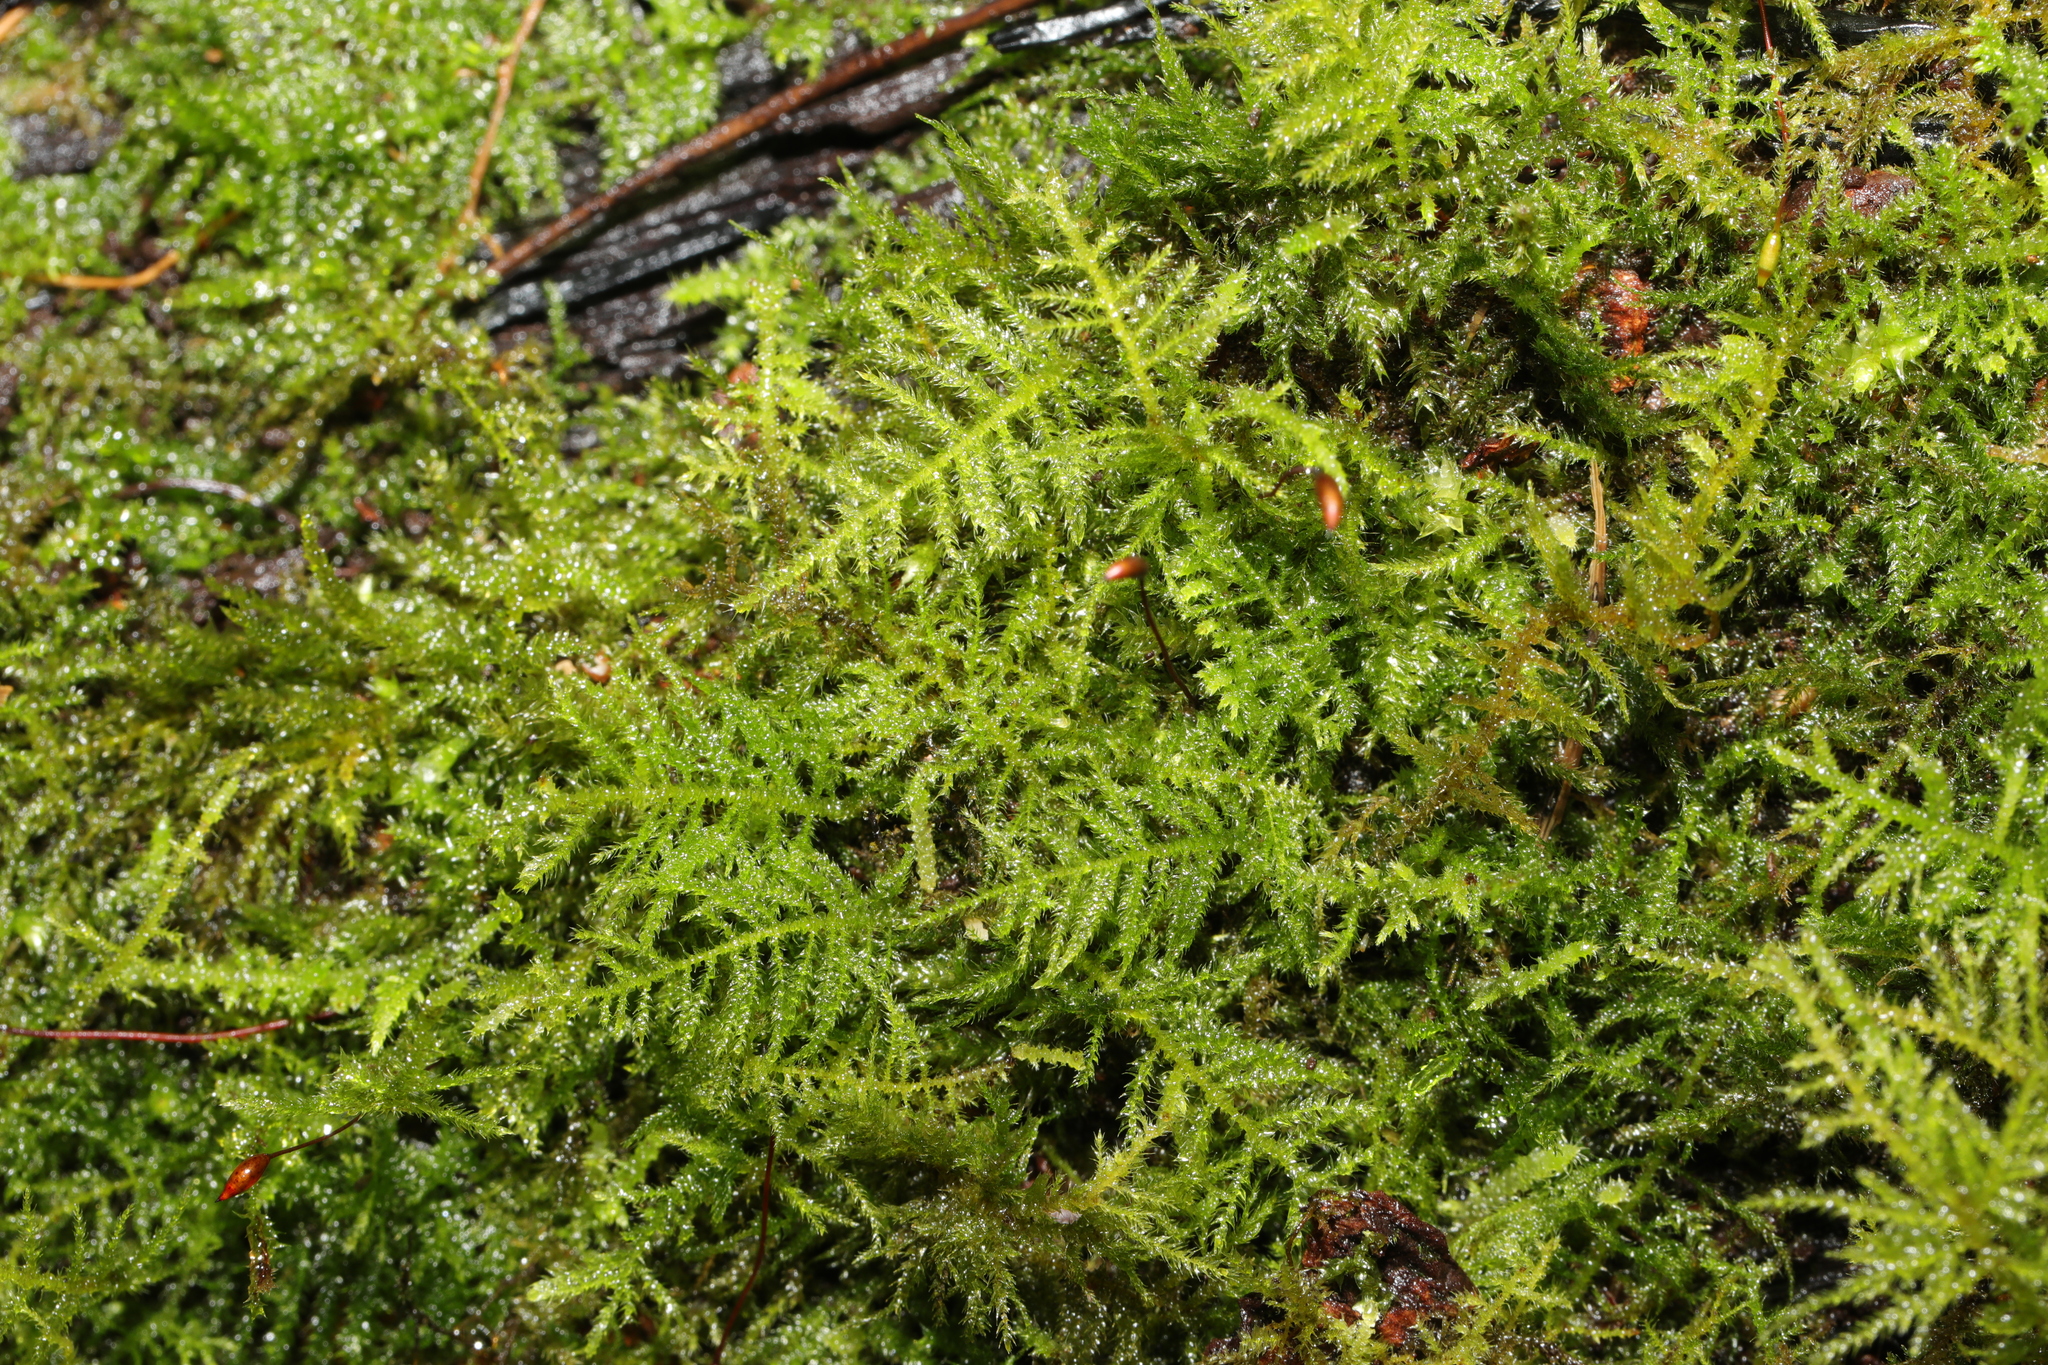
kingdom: Plantae
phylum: Bryophyta
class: Bryopsida
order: Hypnales
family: Brachytheciaceae
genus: Kindbergia
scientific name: Kindbergia praelonga
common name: Slender beaked moss
